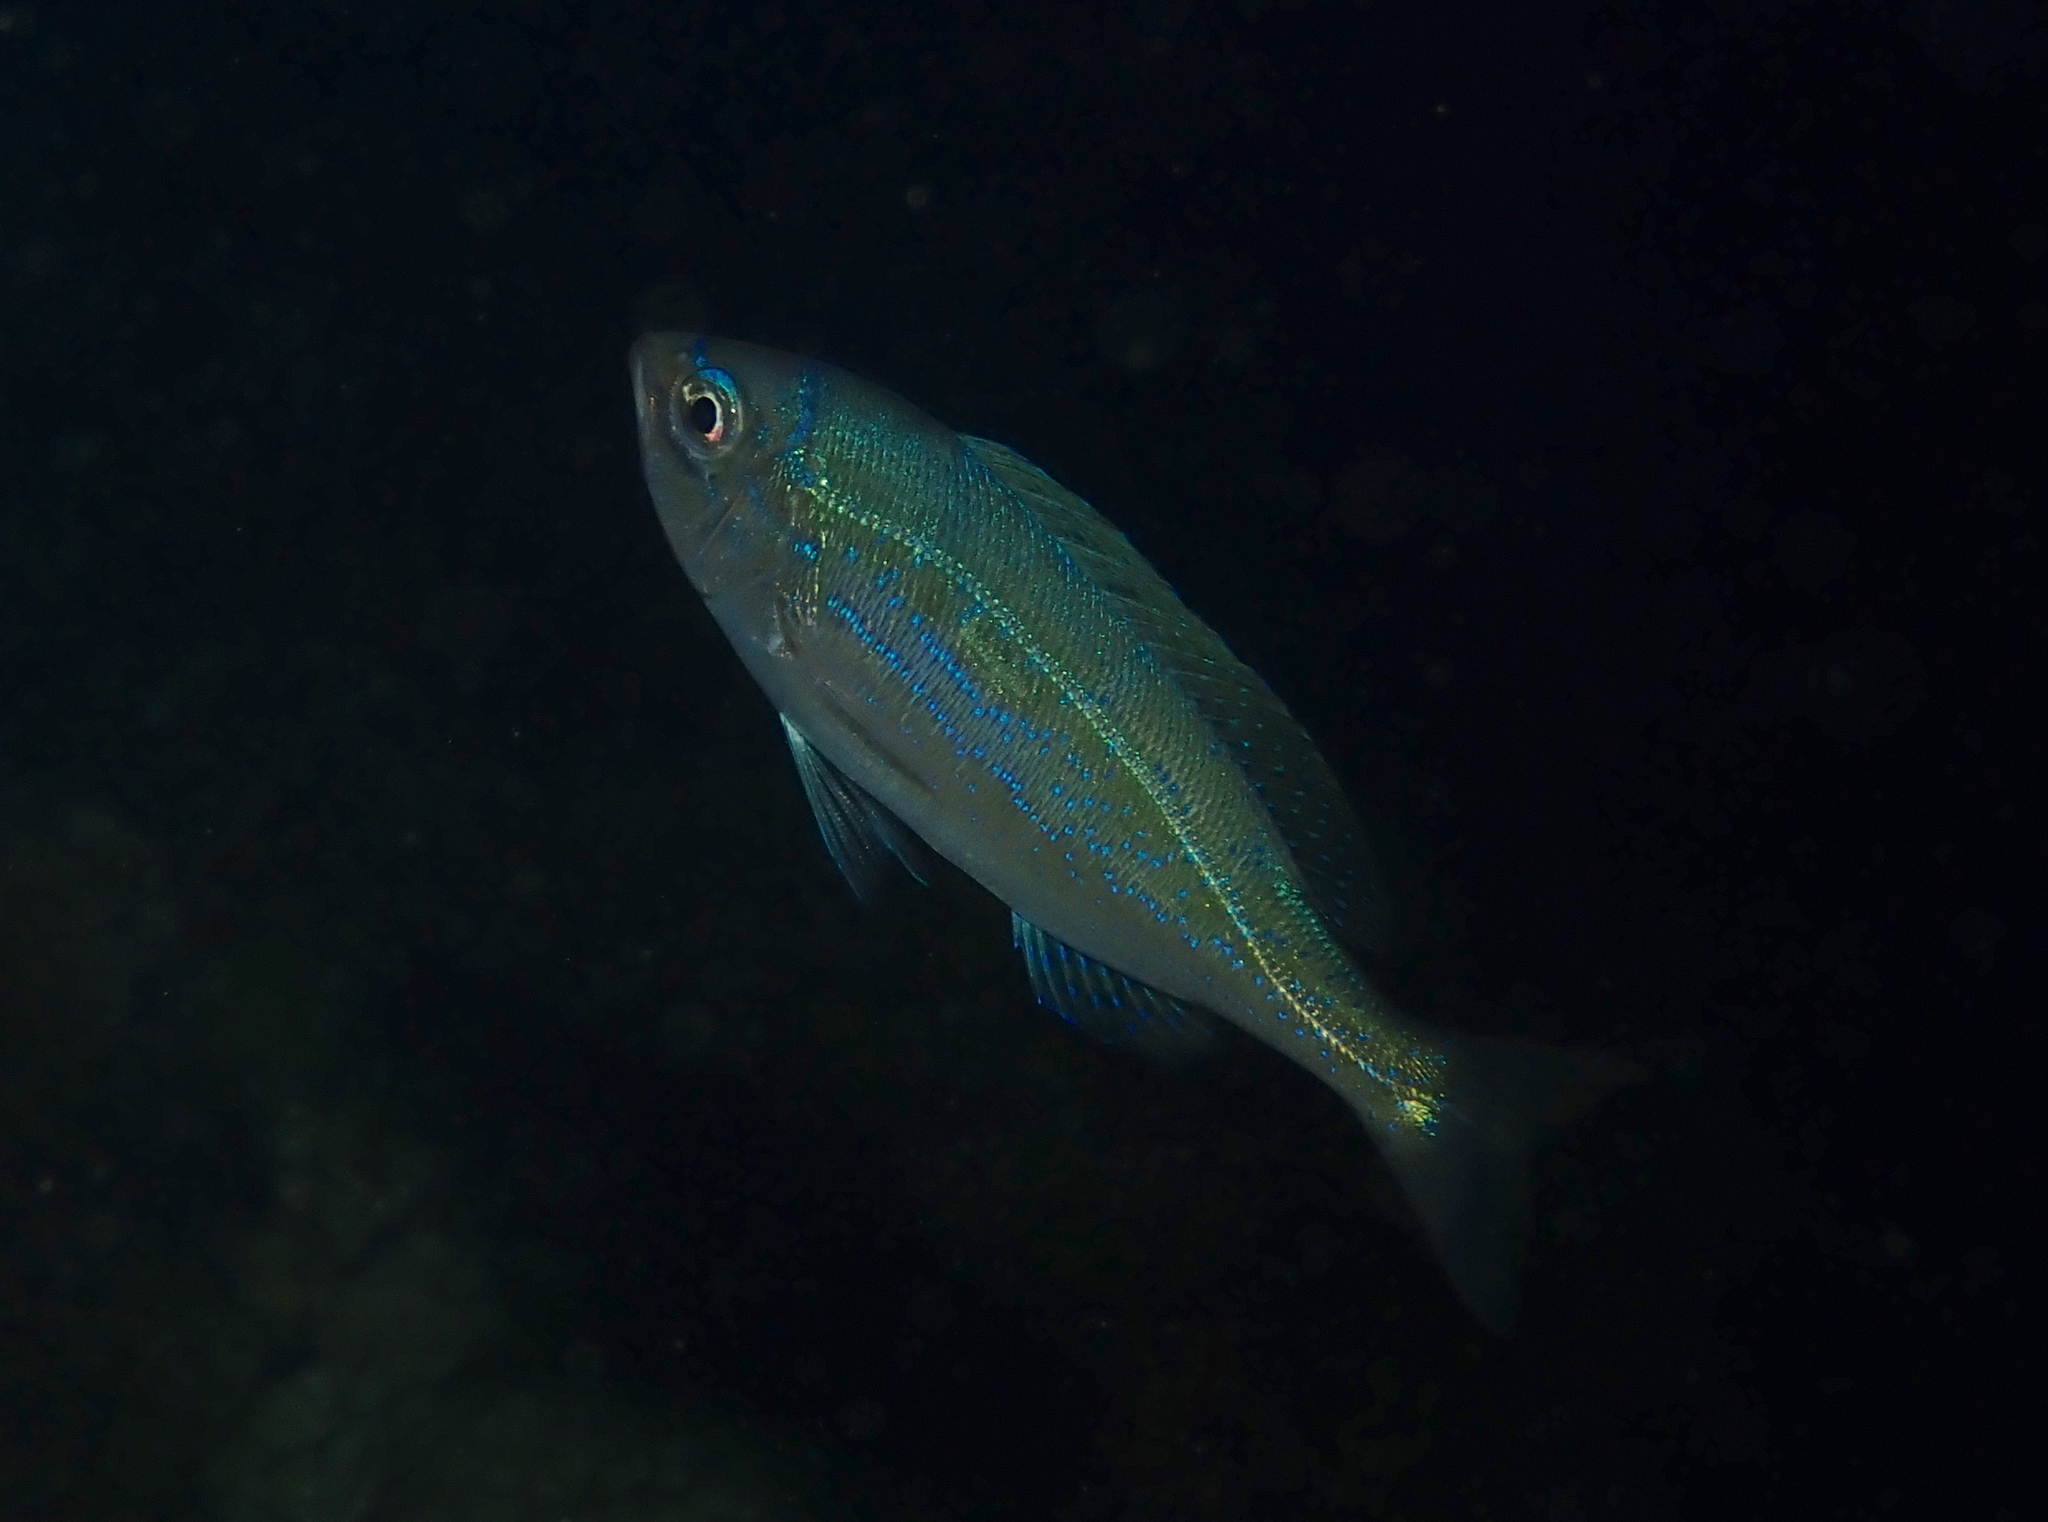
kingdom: Animalia
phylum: Chordata
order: Perciformes
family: Sparidae
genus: Spicara
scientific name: Spicara maena
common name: Blotched picarel
